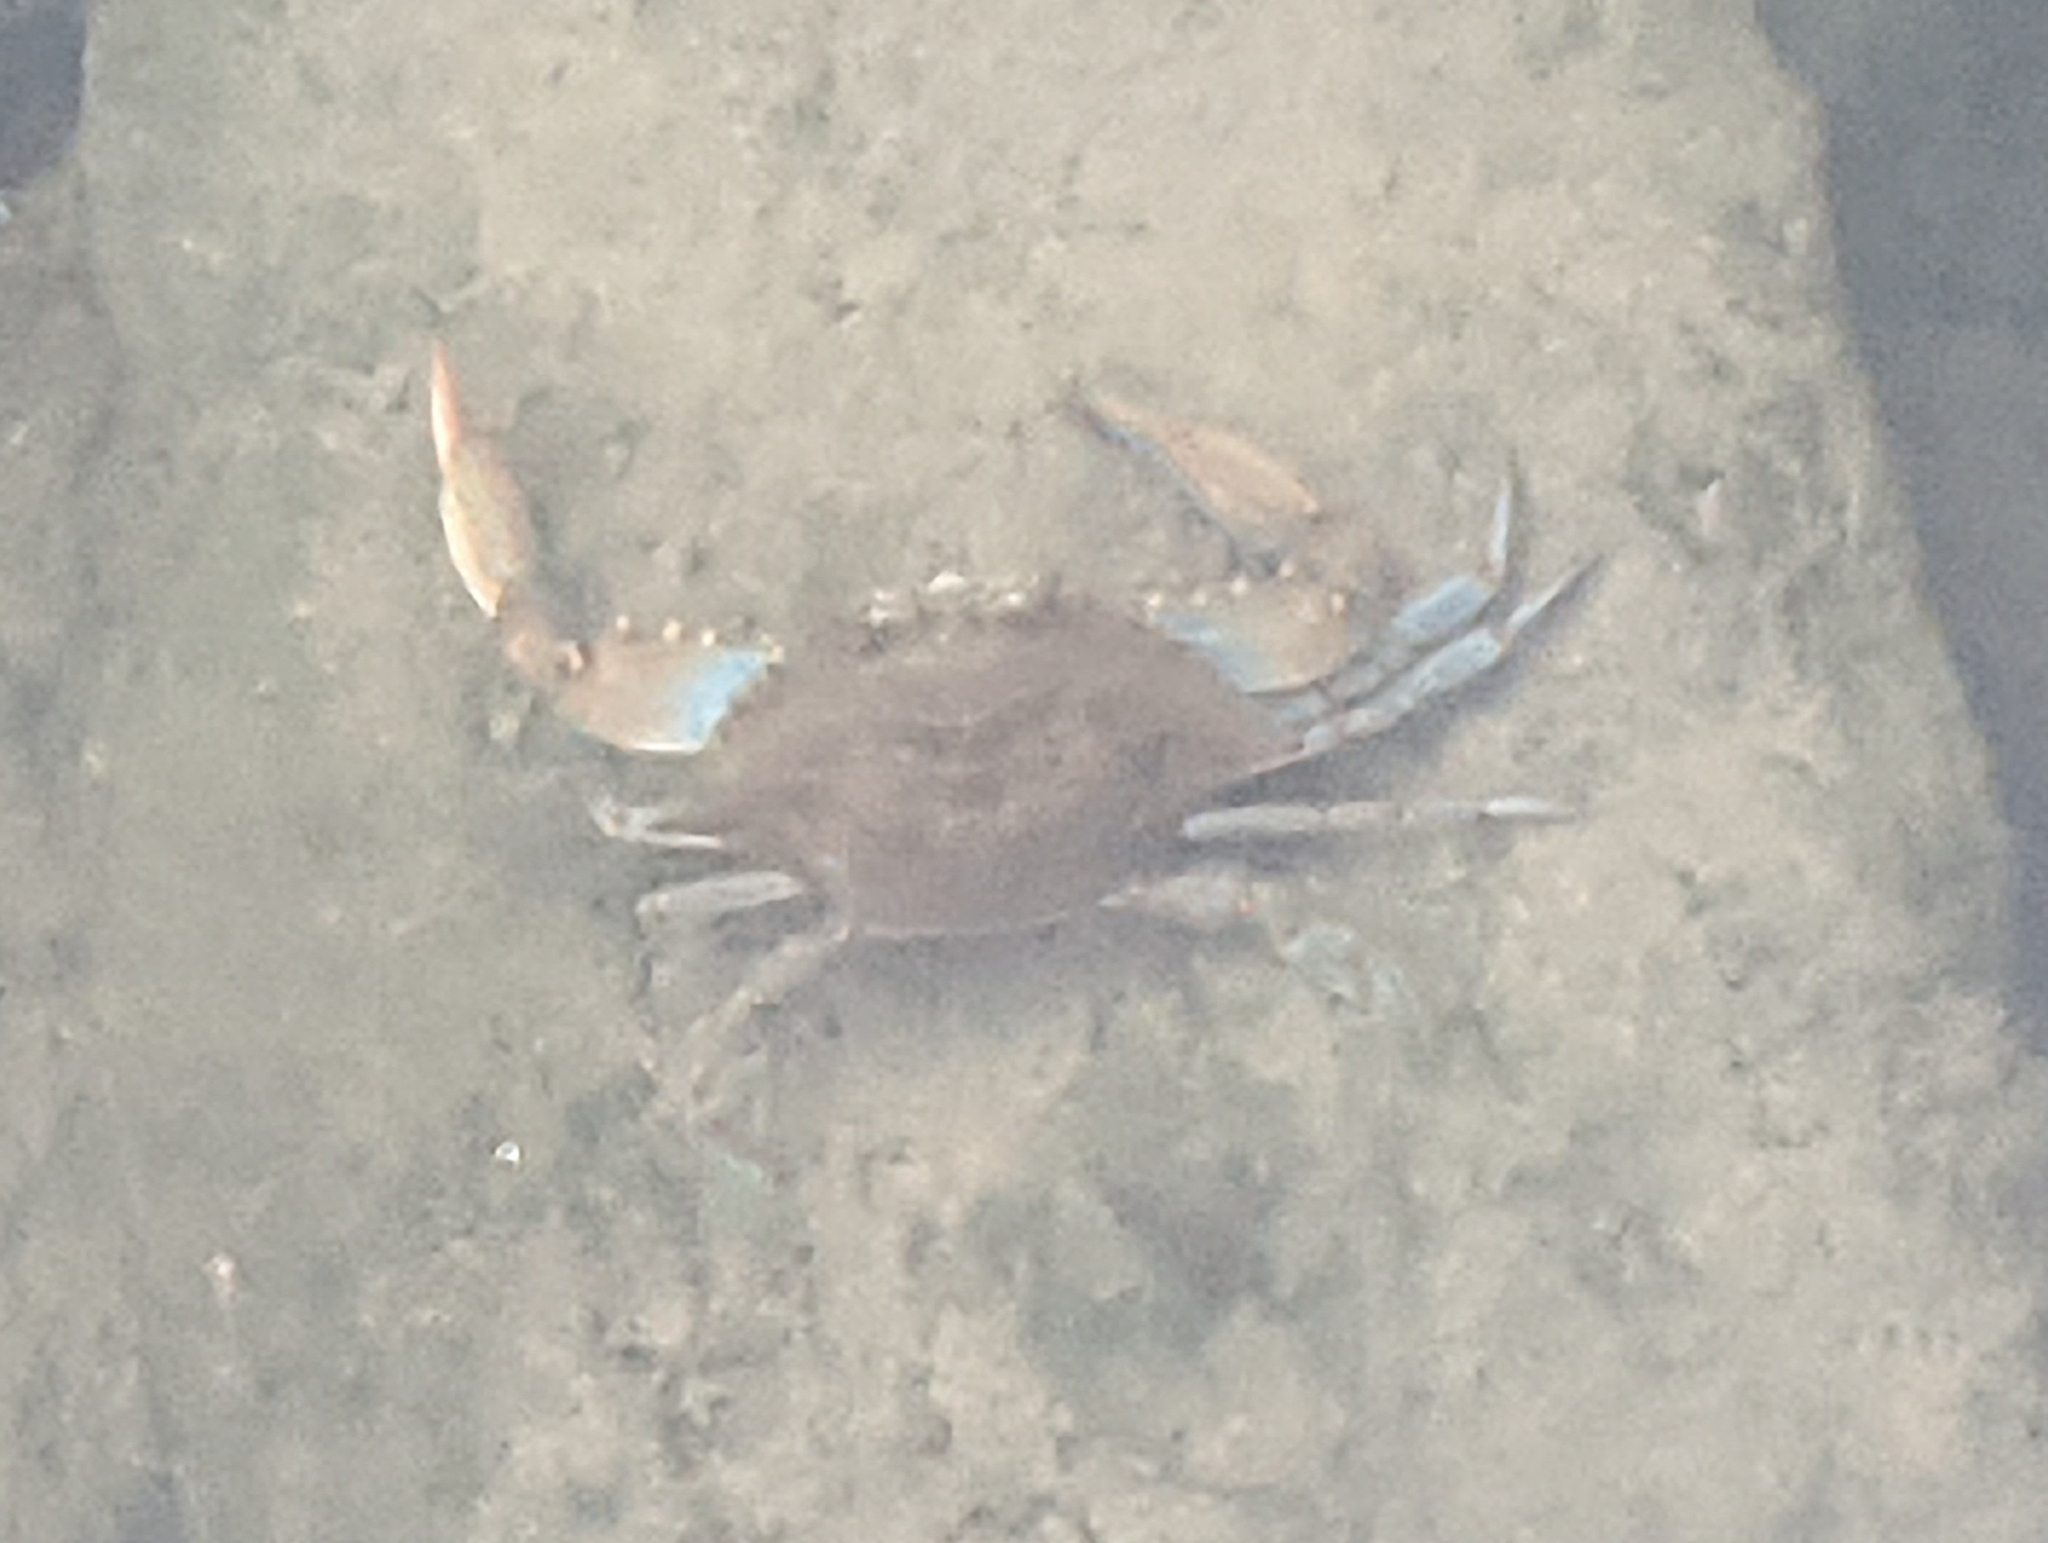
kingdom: Animalia
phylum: Arthropoda
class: Malacostraca
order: Decapoda
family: Portunidae
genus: Callinectes
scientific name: Callinectes sapidus
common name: Blue crab
